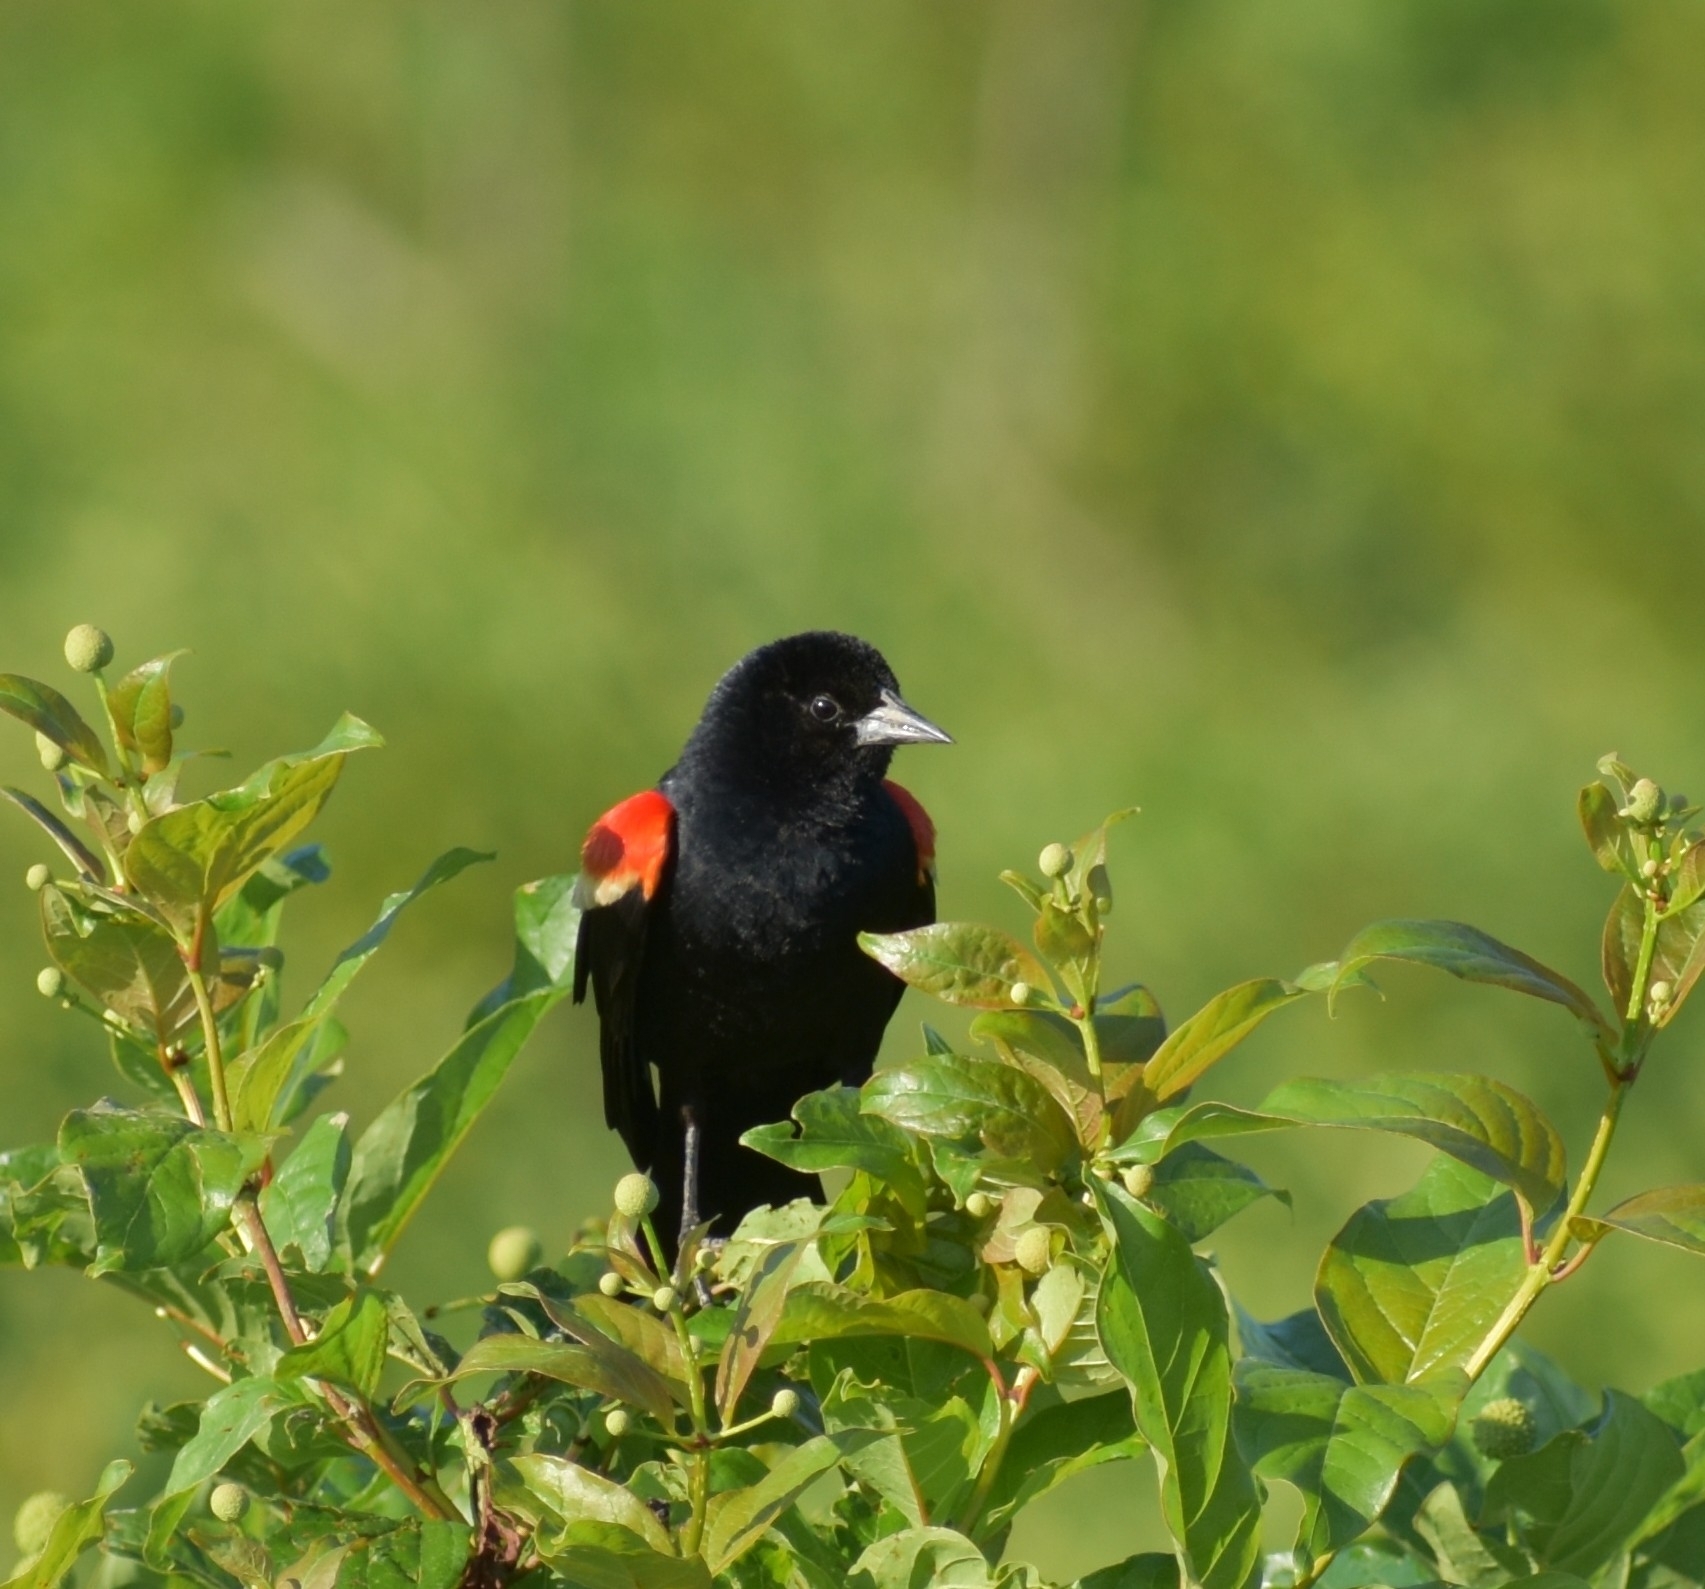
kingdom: Animalia
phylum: Chordata
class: Aves
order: Passeriformes
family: Icteridae
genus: Agelaius
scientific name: Agelaius phoeniceus
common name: Red-winged blackbird
